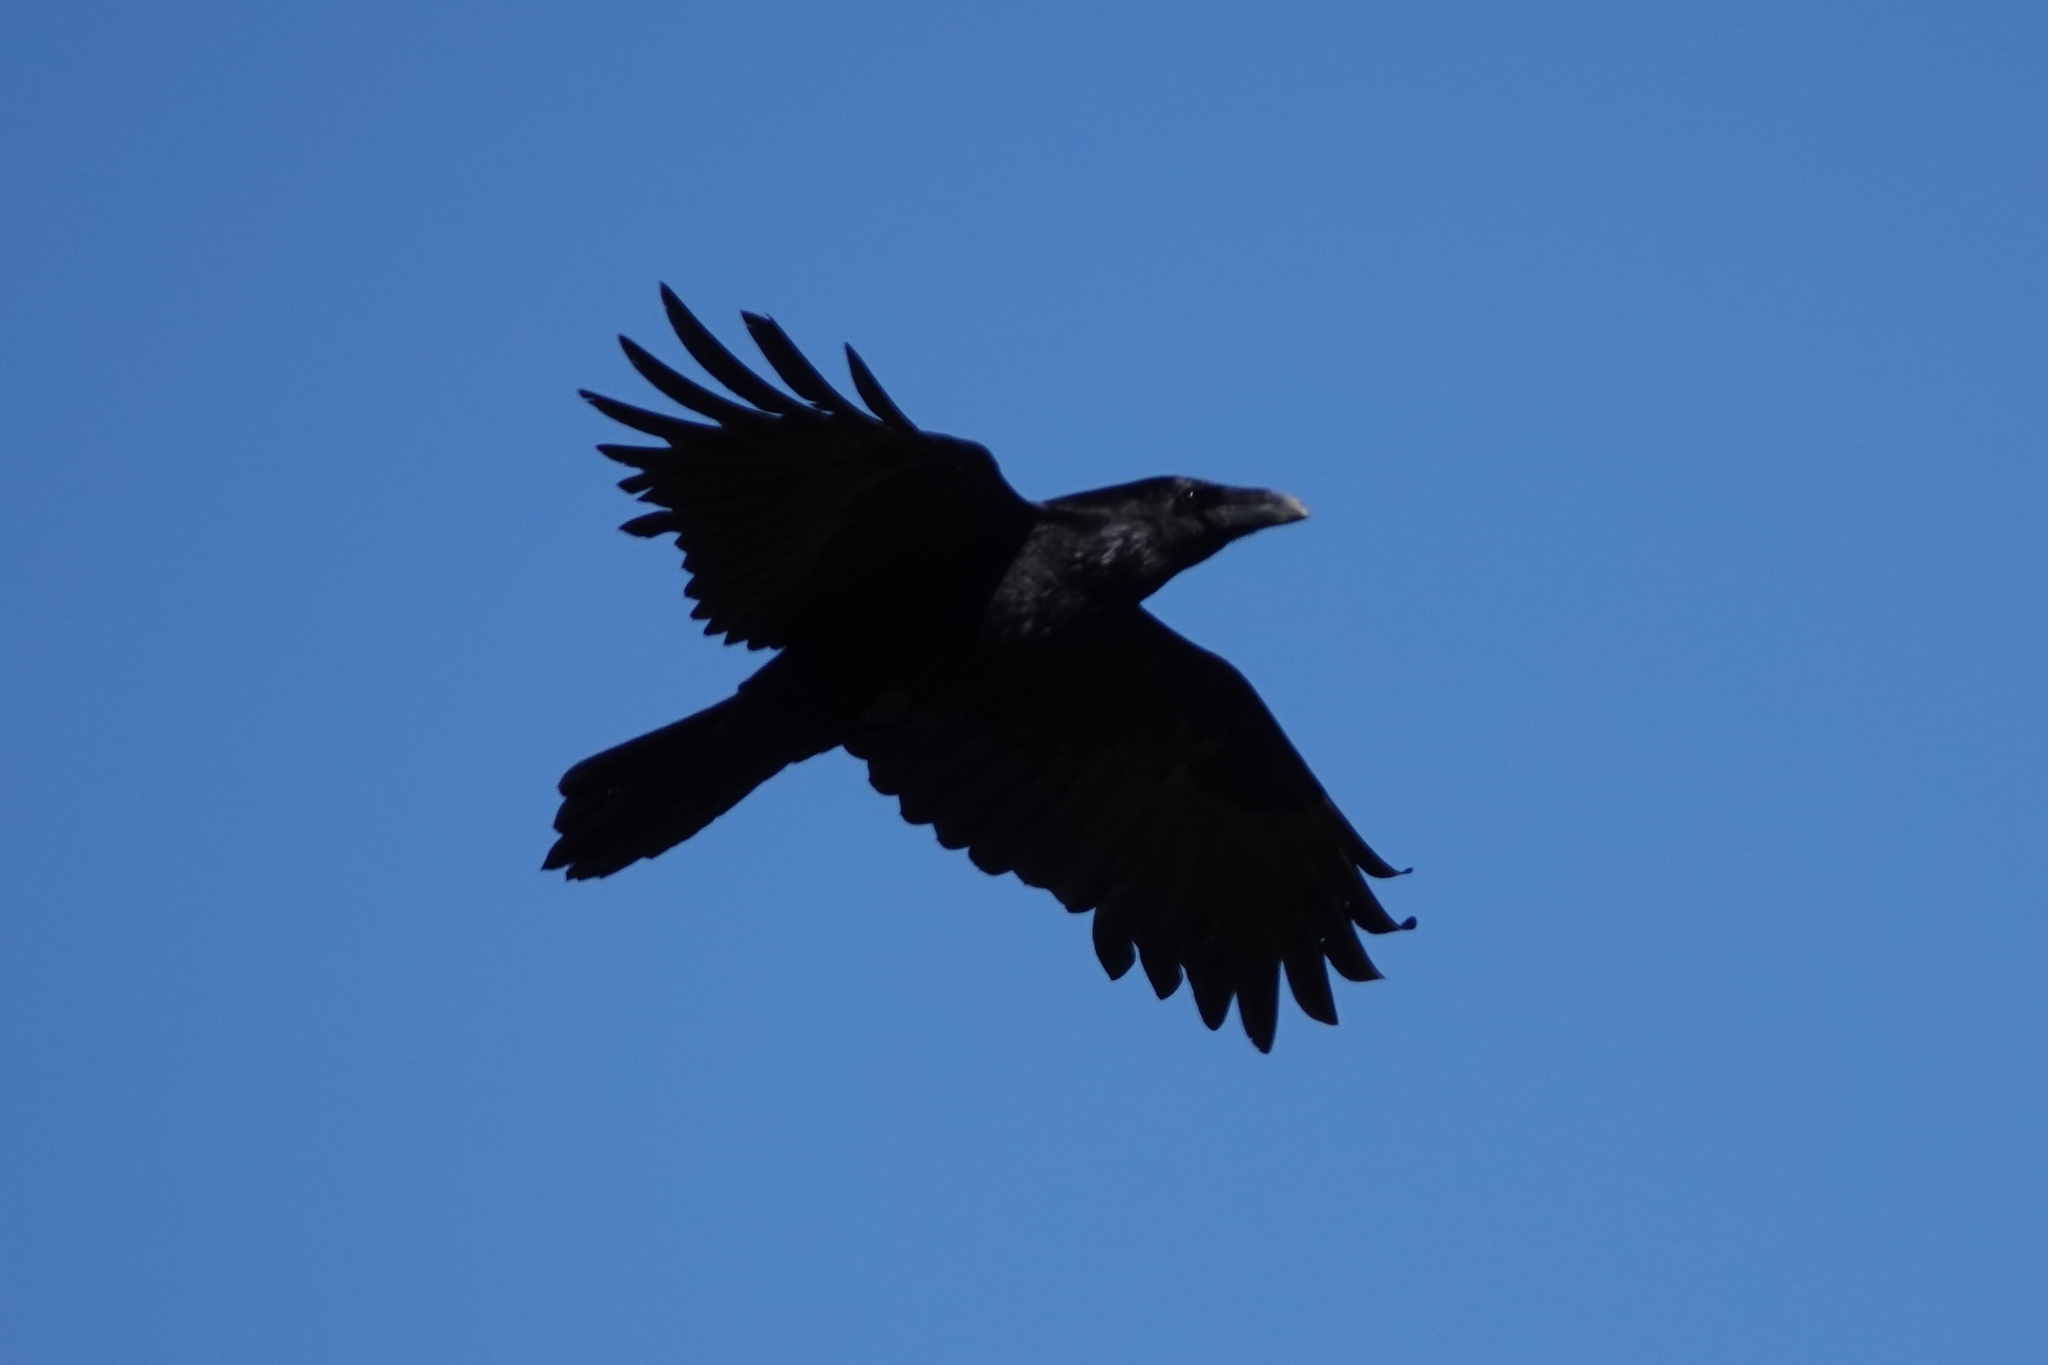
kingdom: Animalia
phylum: Chordata
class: Aves
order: Passeriformes
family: Corvidae
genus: Corvus
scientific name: Corvus corax
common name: Common raven
